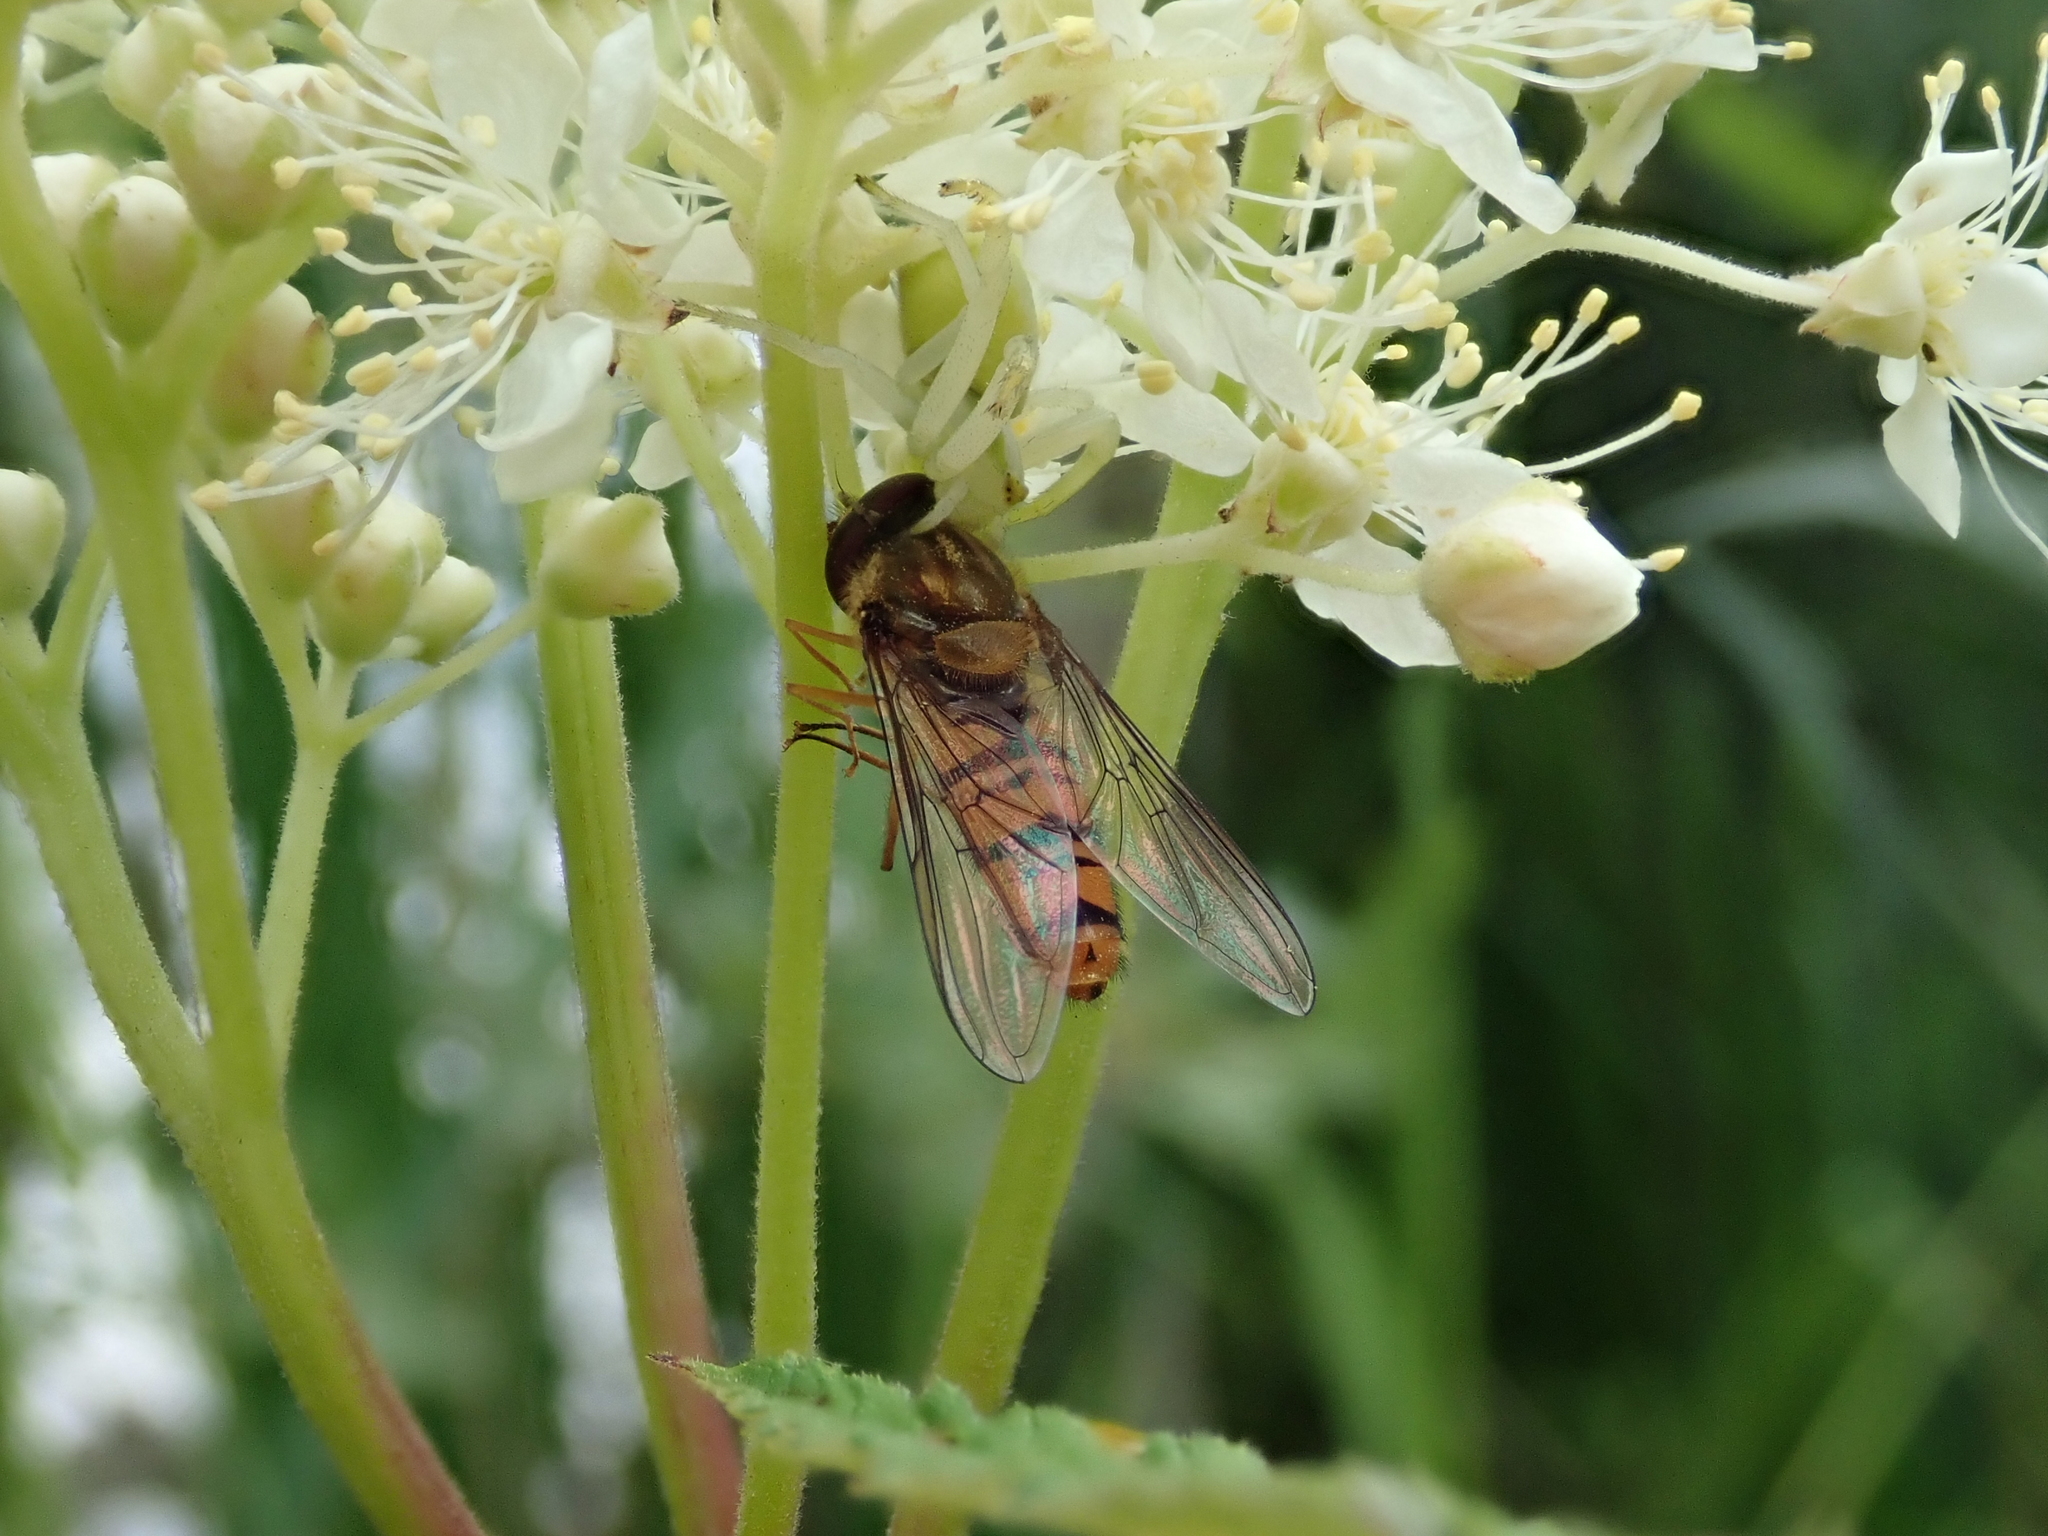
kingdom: Animalia
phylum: Arthropoda
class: Insecta
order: Diptera
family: Syrphidae
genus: Episyrphus
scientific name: Episyrphus balteatus
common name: Marmalade hoverfly
